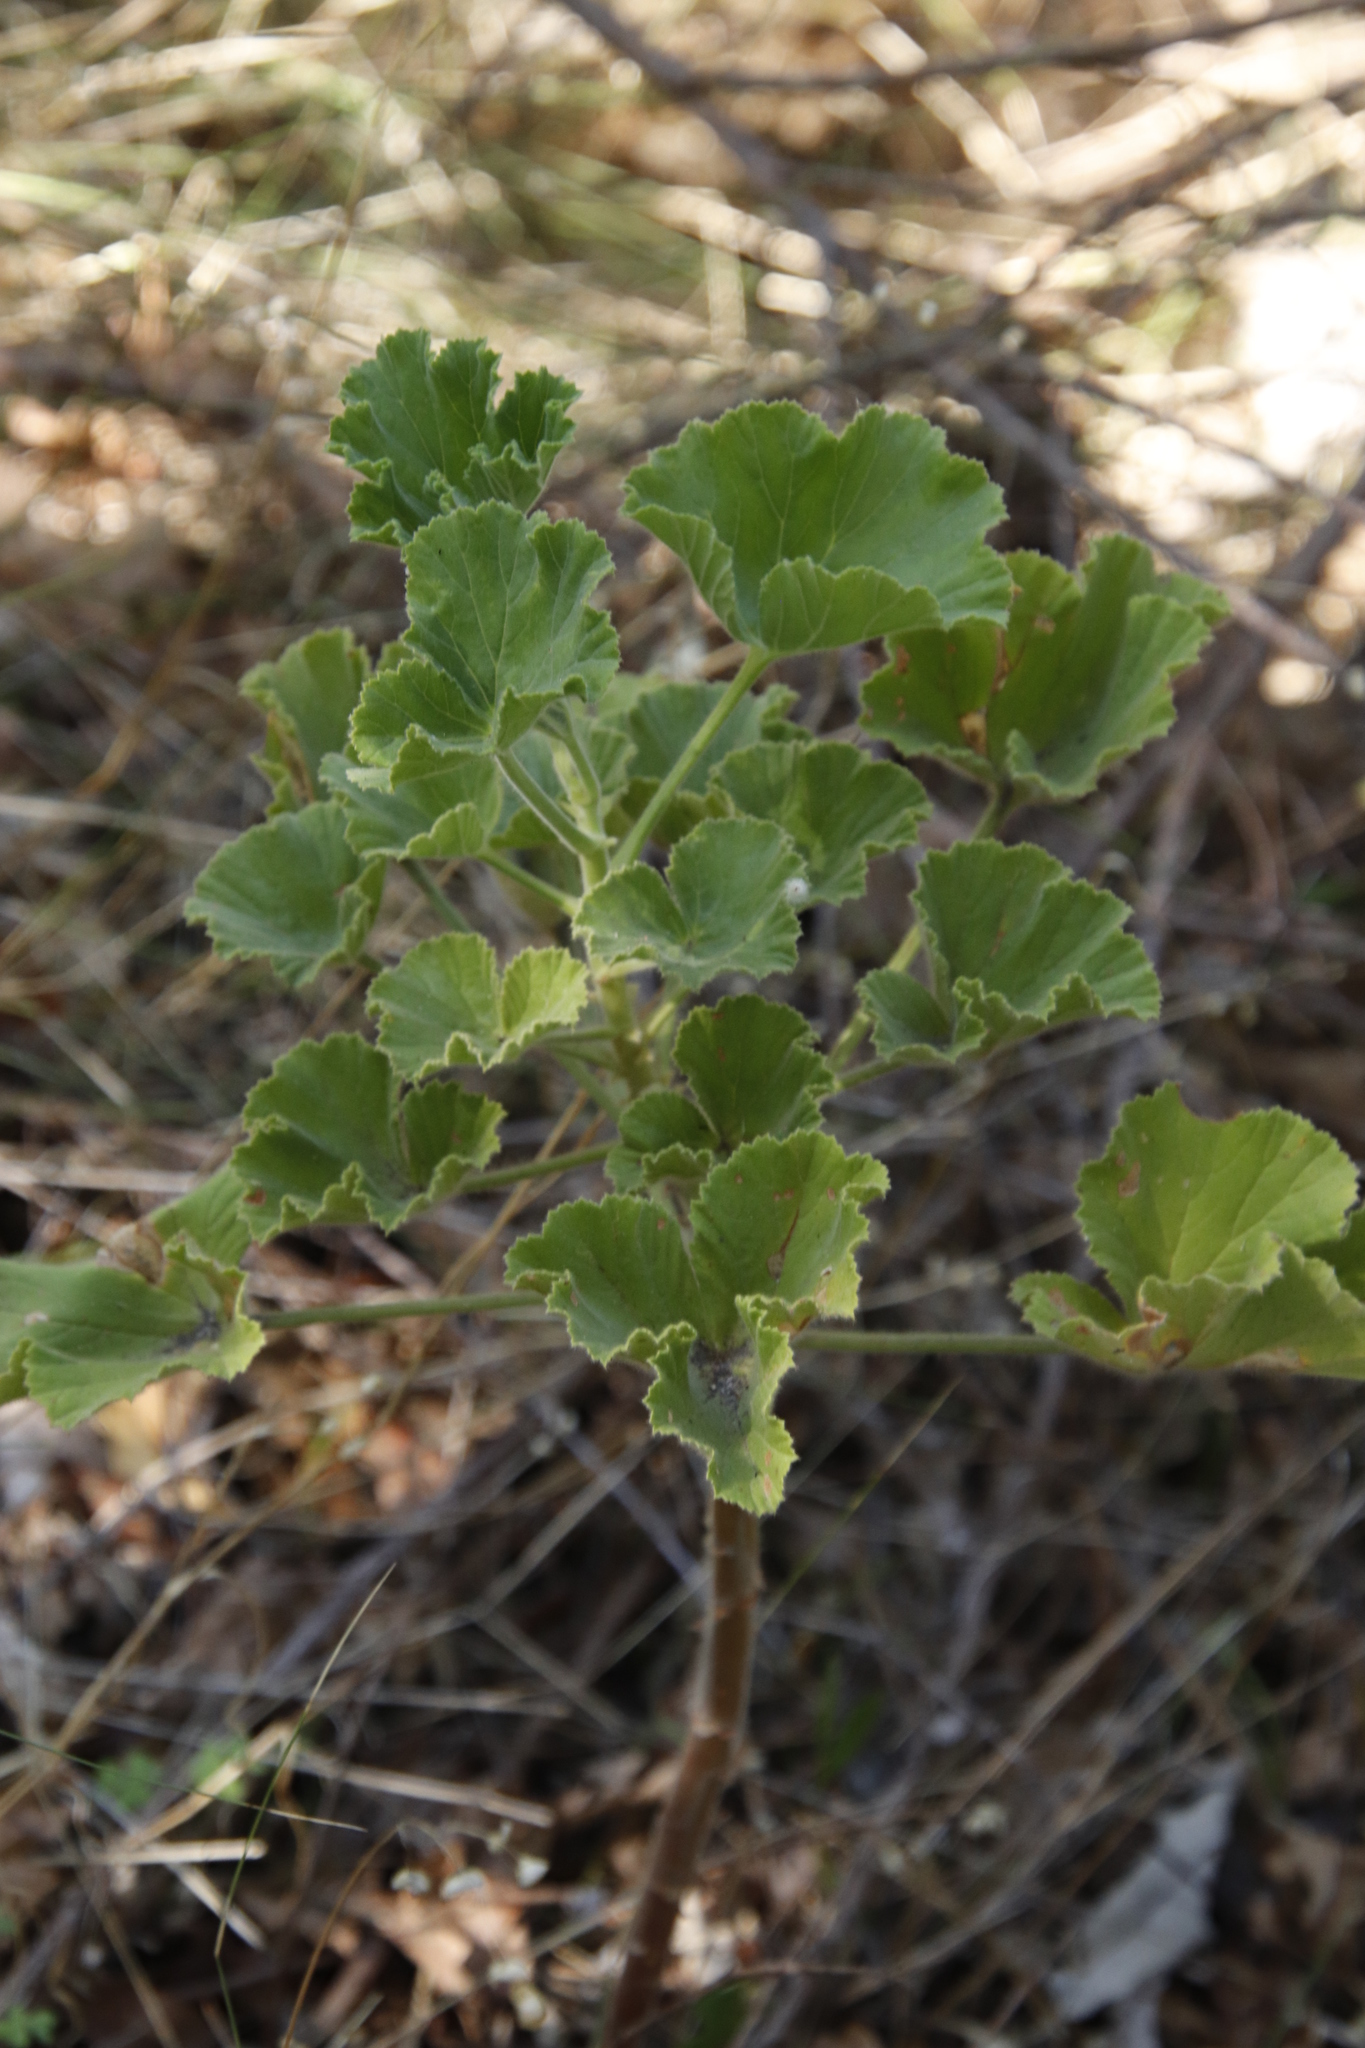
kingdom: Plantae
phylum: Tracheophyta
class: Magnoliopsida
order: Geraniales
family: Geraniaceae
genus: Pelargonium
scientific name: Pelargonium cucullatum
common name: Tree pelargonium
